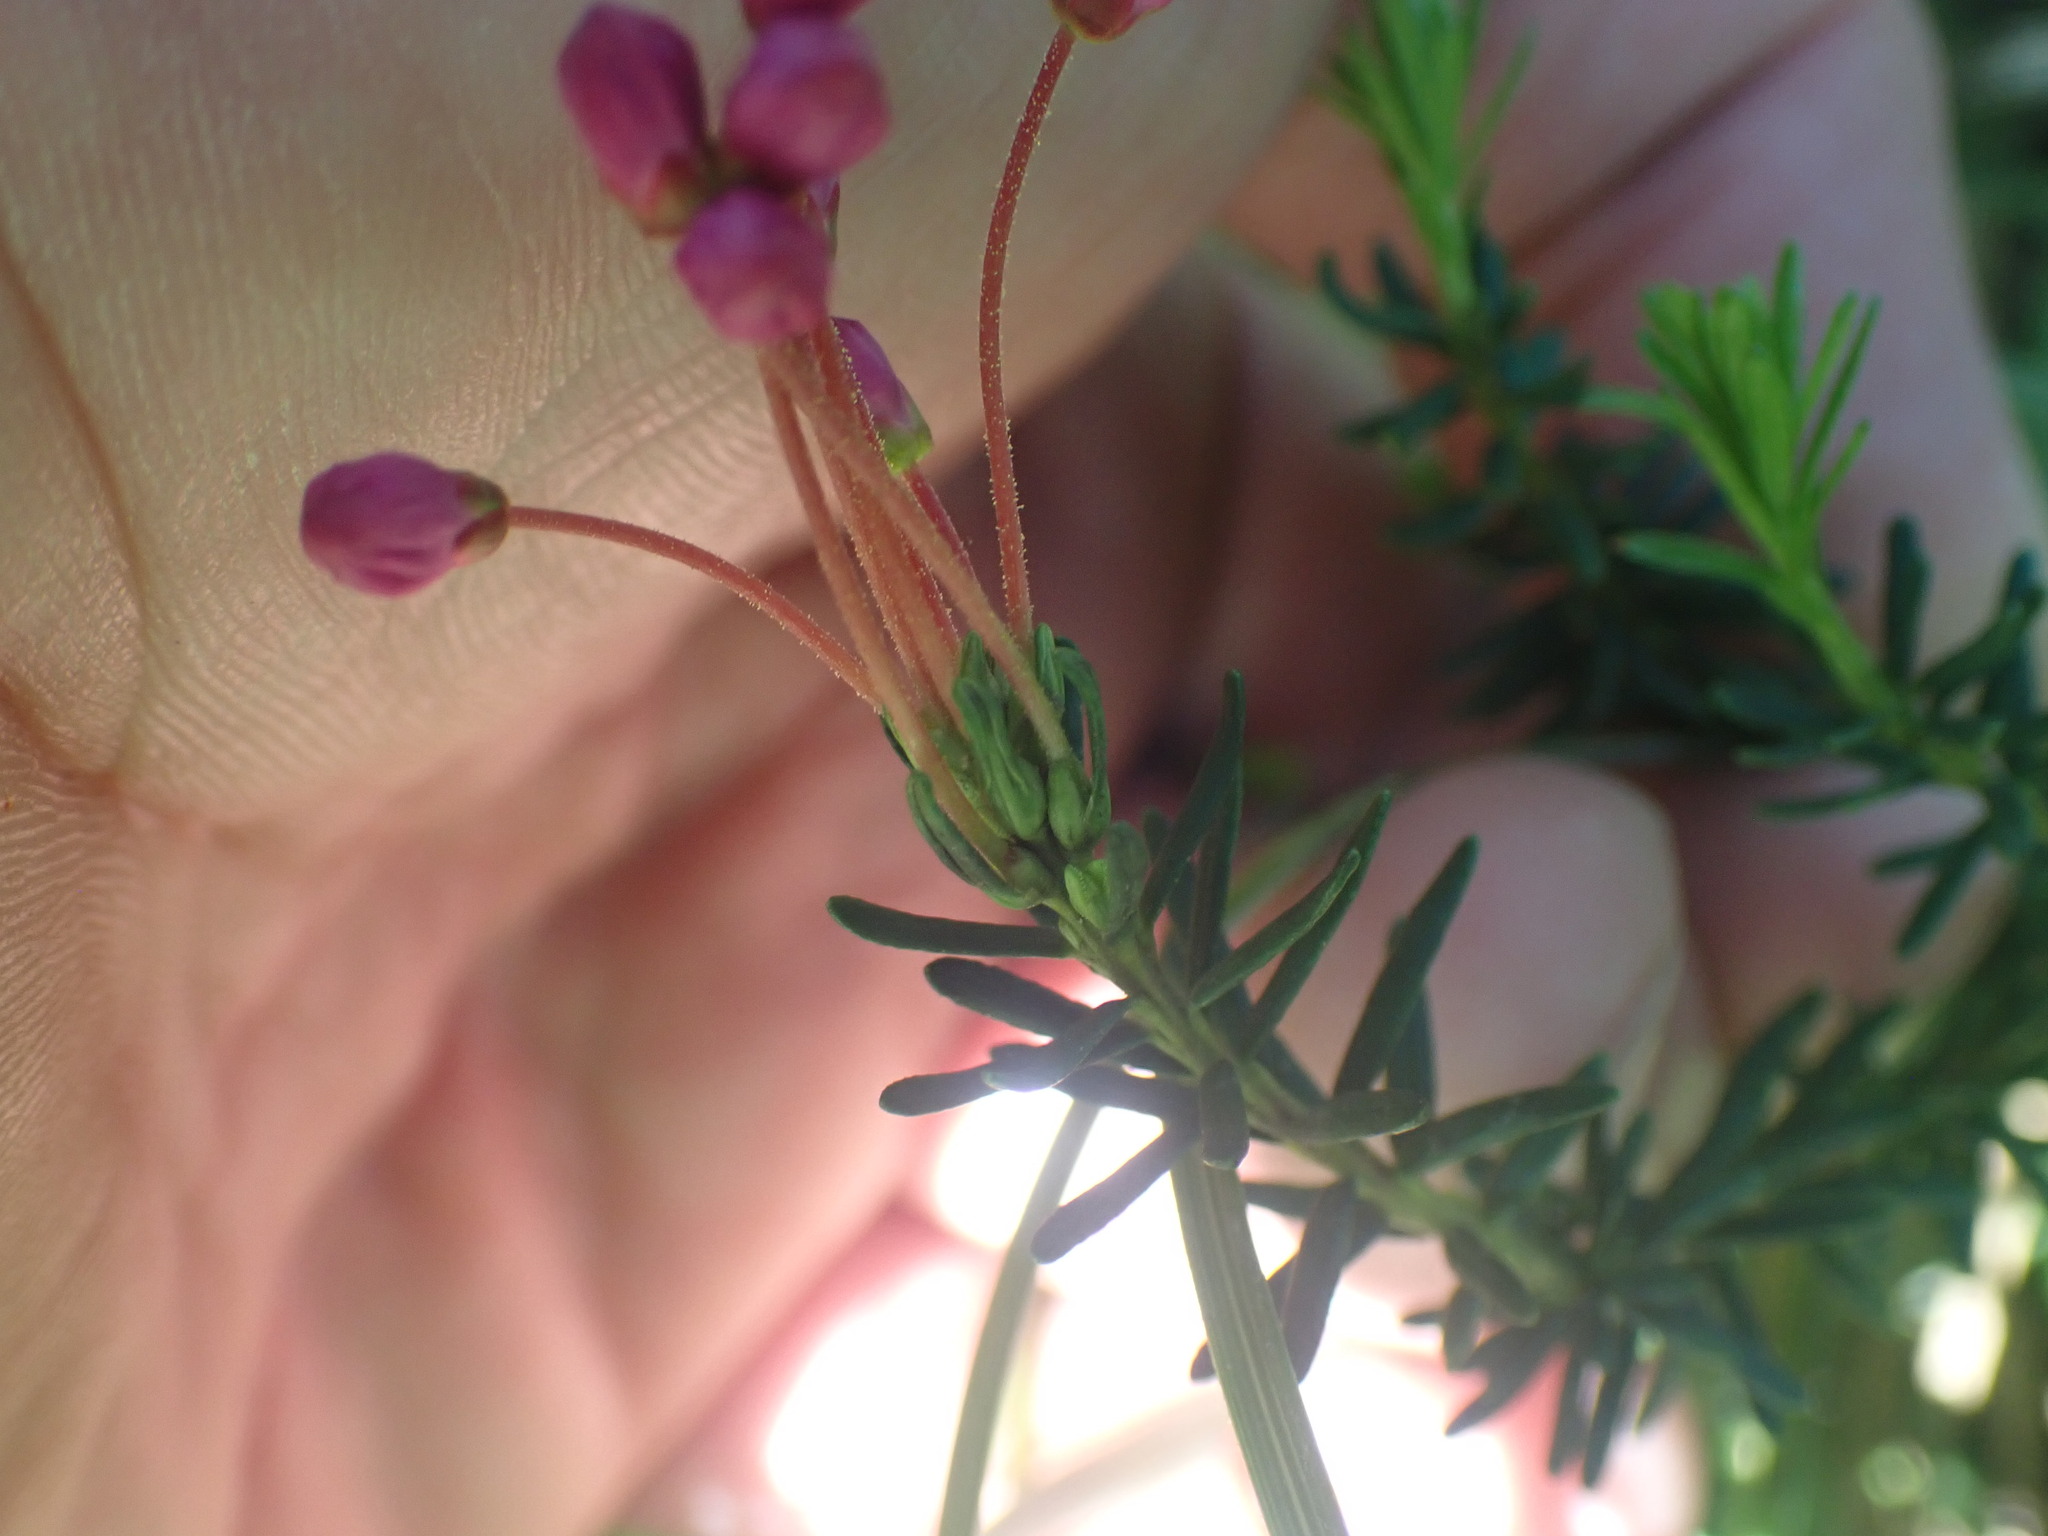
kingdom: Plantae
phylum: Tracheophyta
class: Magnoliopsida
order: Ericales
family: Ericaceae
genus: Phyllodoce
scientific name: Phyllodoce empetriformis
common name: Pink mountain heather
